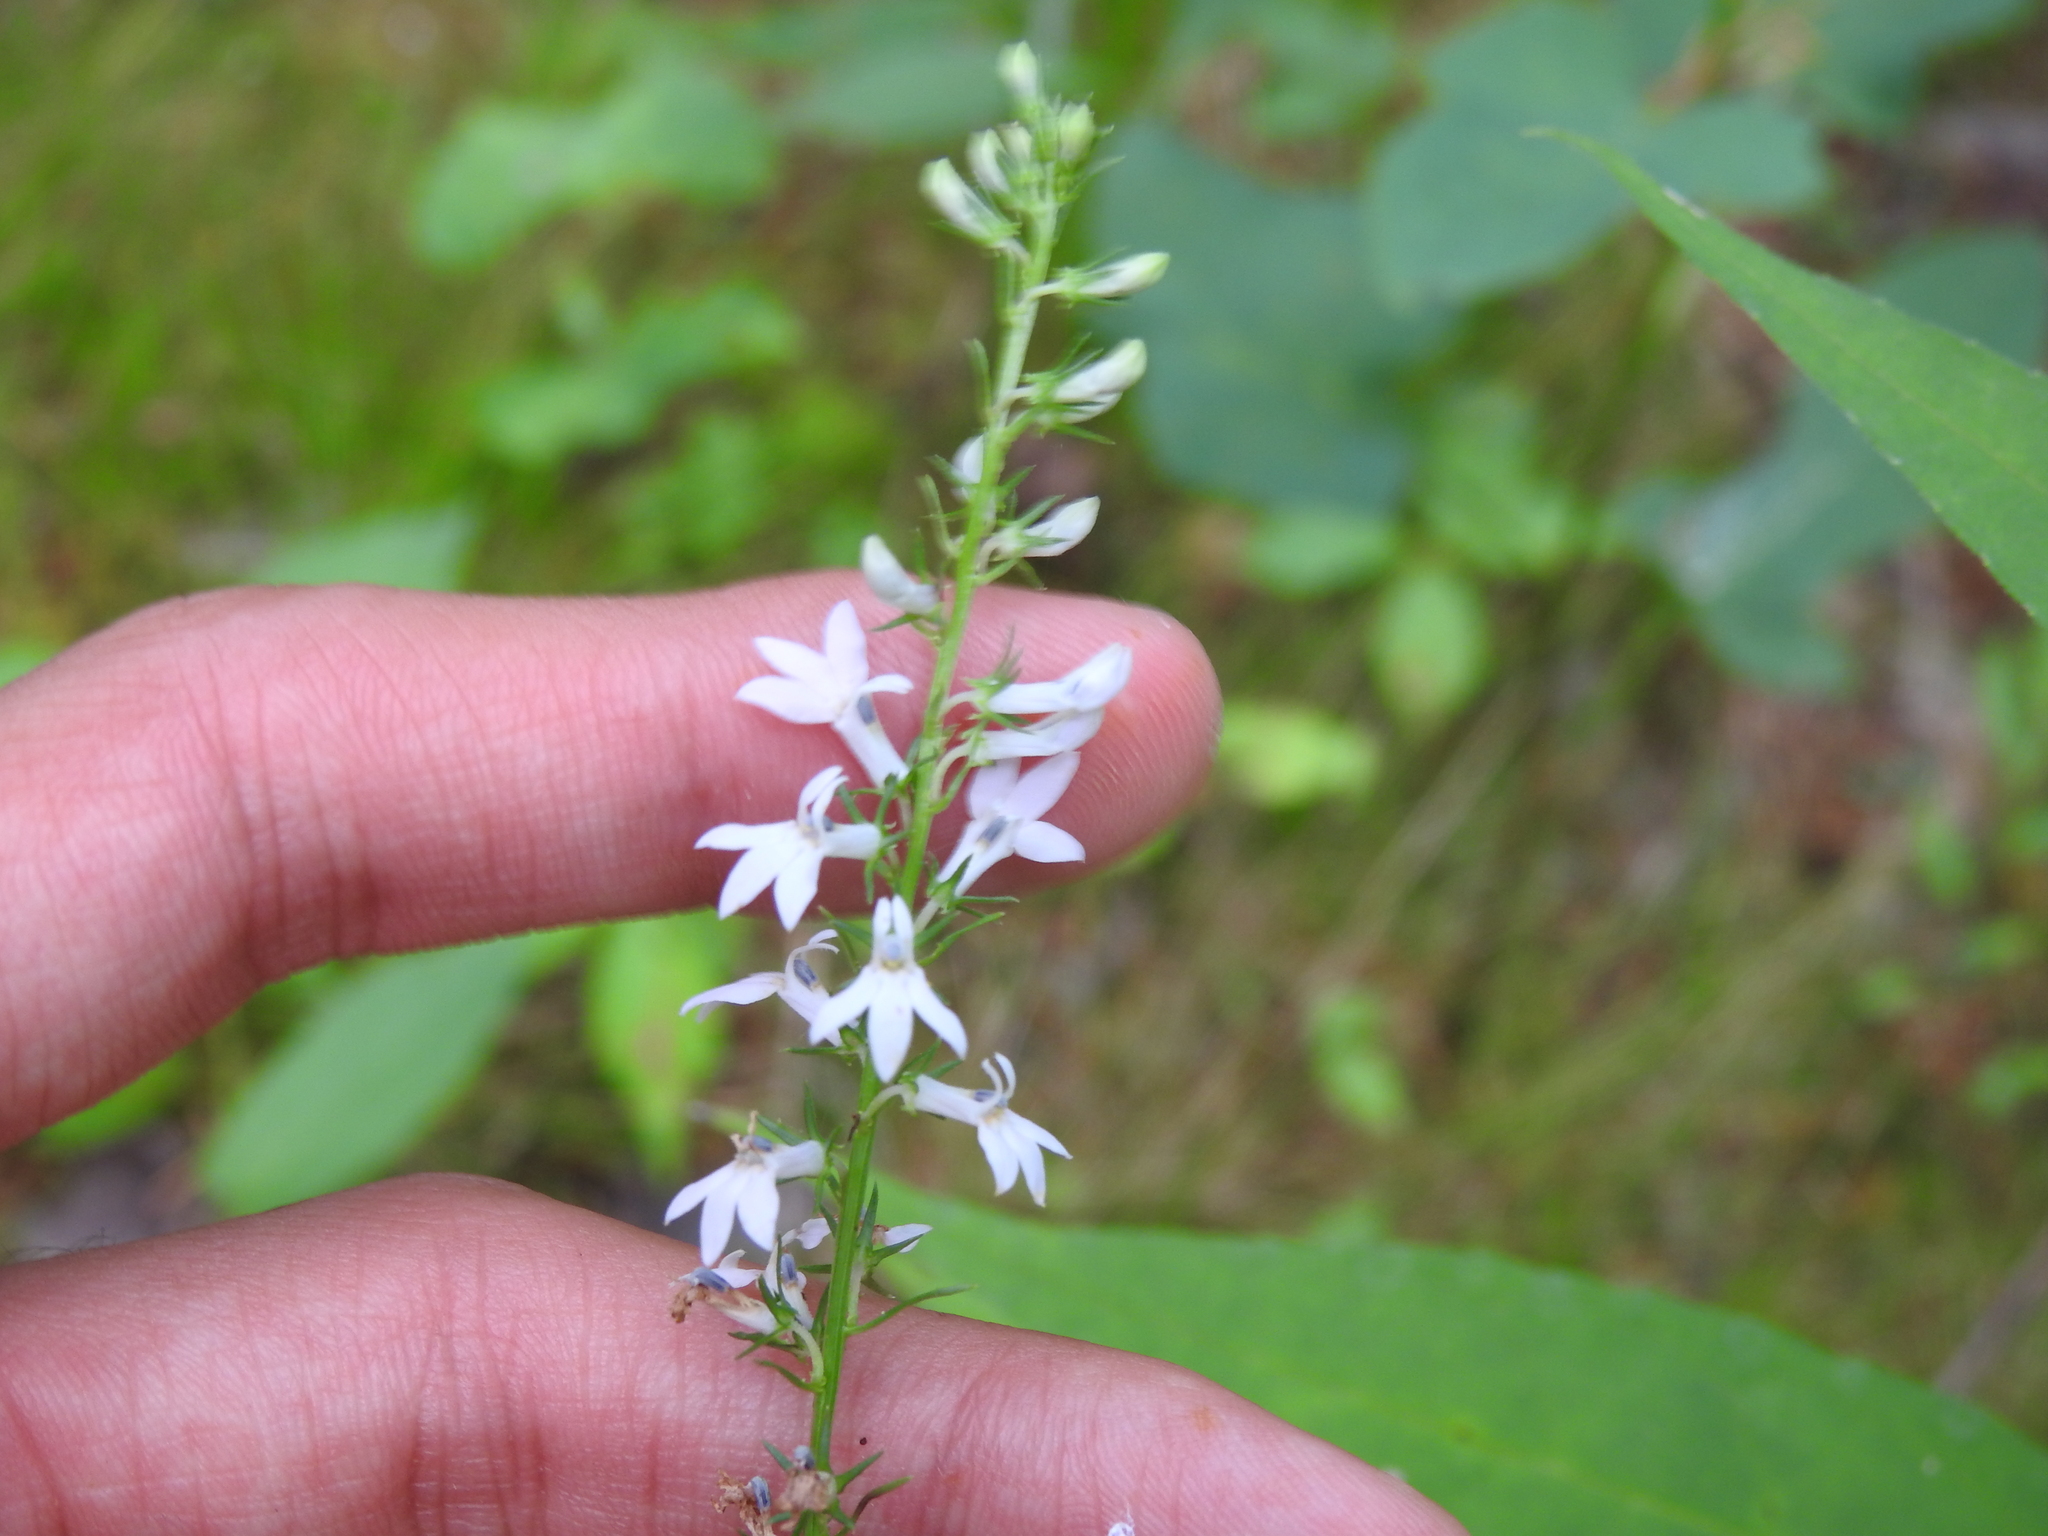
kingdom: Plantae
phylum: Tracheophyta
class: Magnoliopsida
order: Asterales
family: Campanulaceae
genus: Lobelia
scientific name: Lobelia spicata
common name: Pale-spike lobelia
